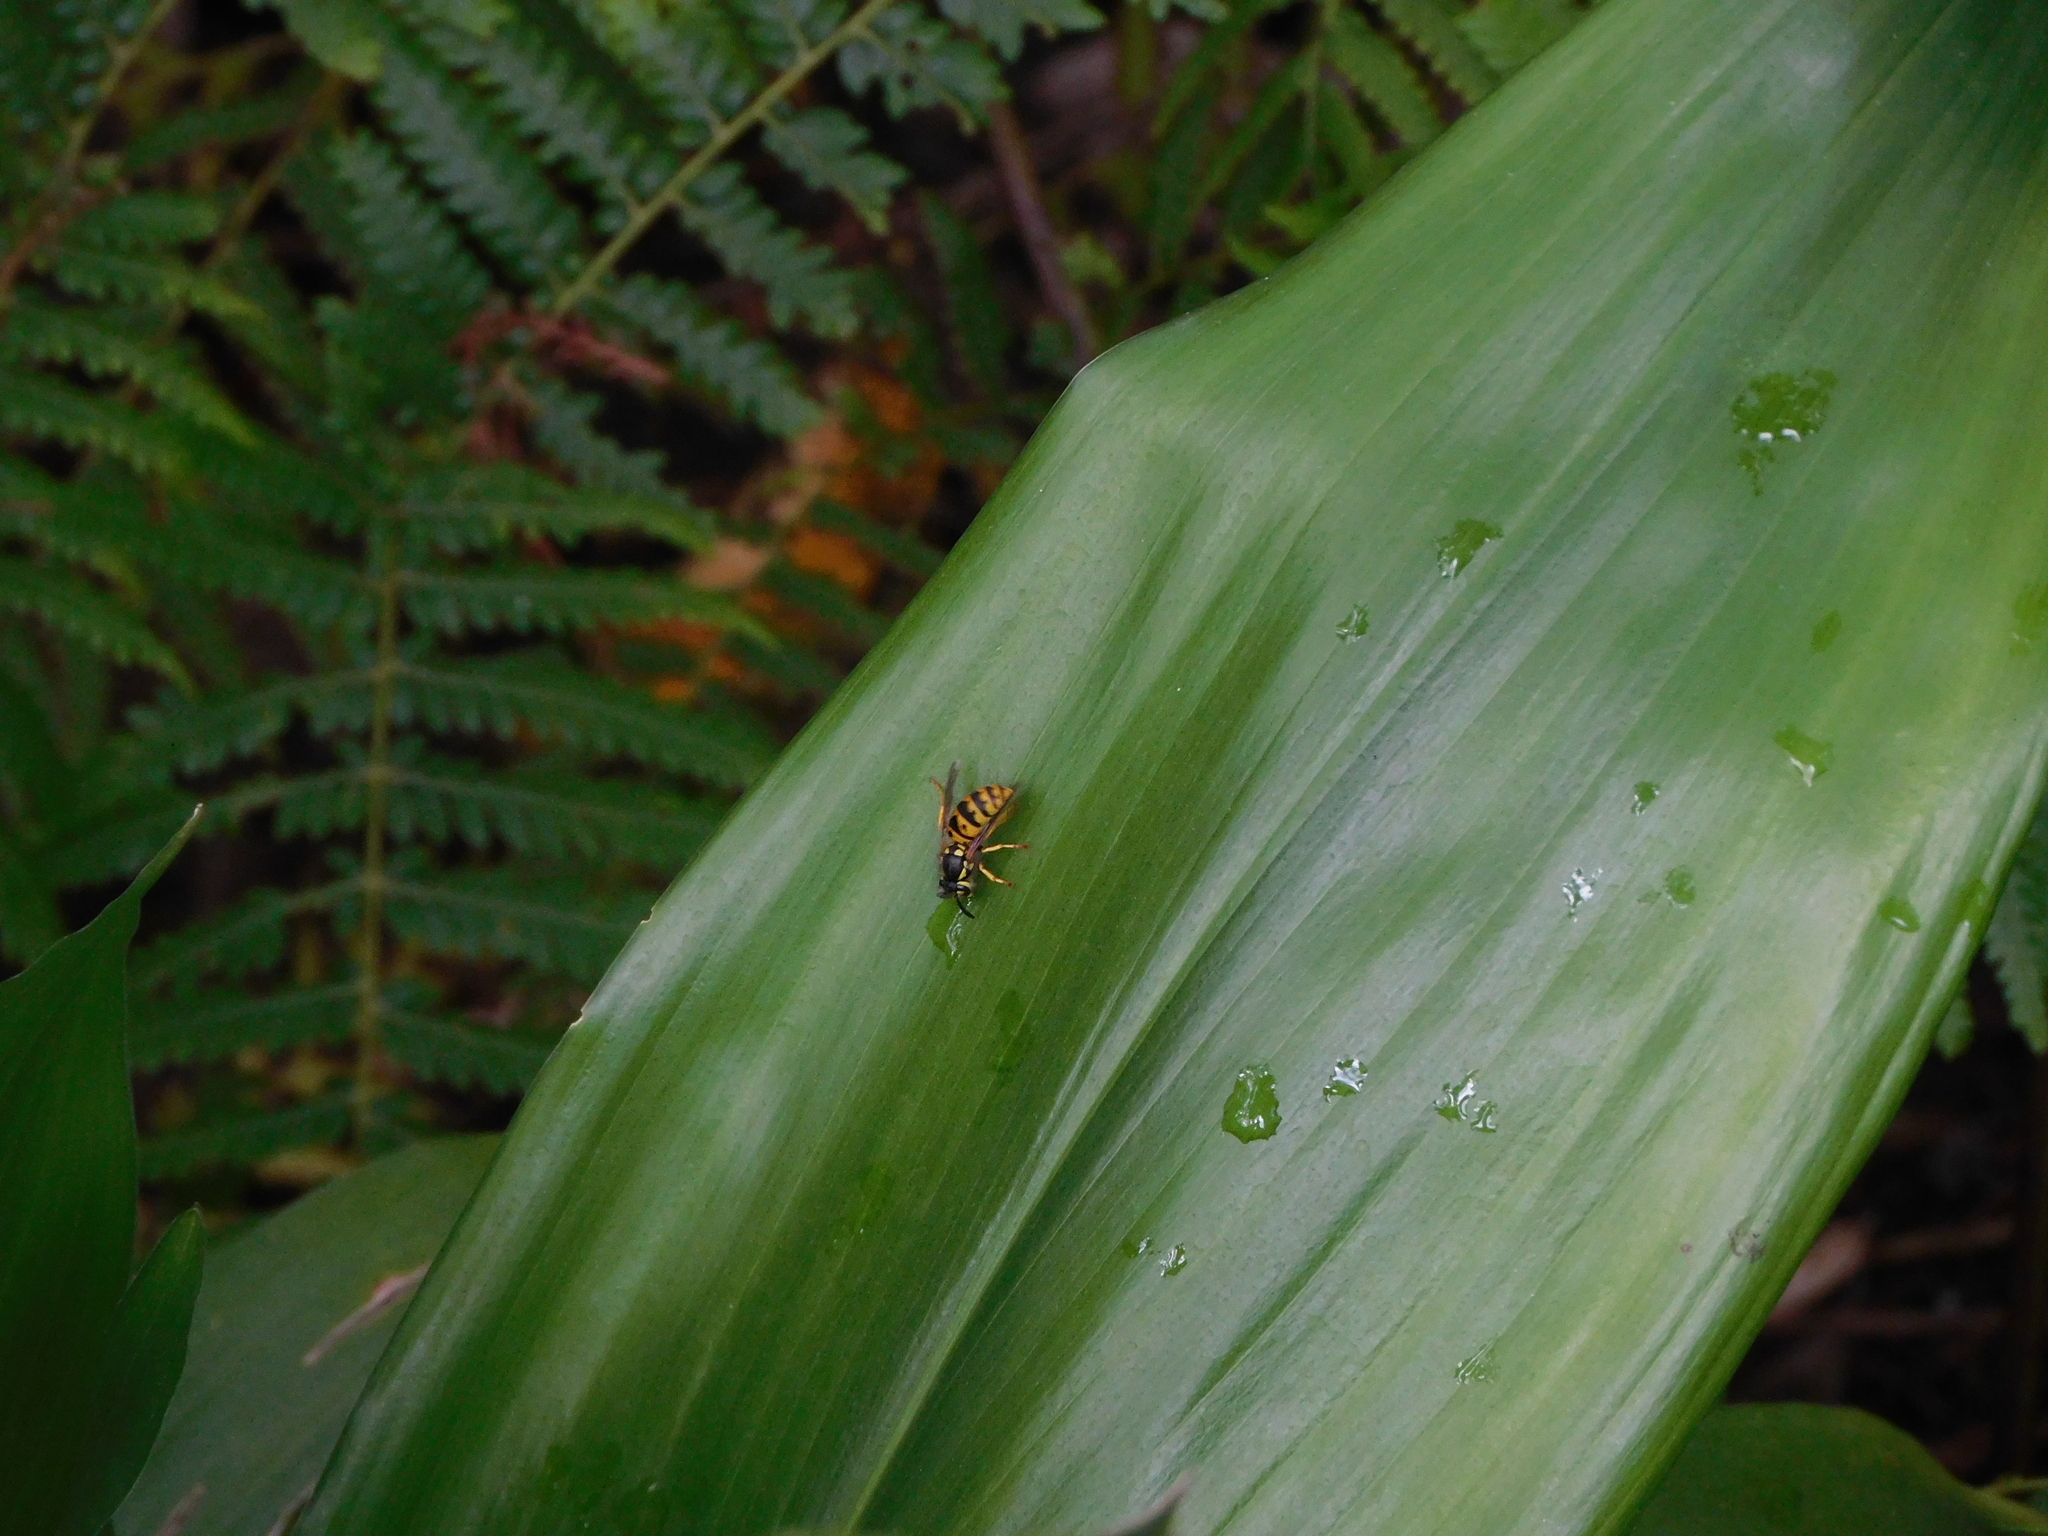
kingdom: Animalia
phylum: Arthropoda
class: Insecta
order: Hymenoptera
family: Vespidae
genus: Vespula
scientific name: Vespula germanica
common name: German wasp
